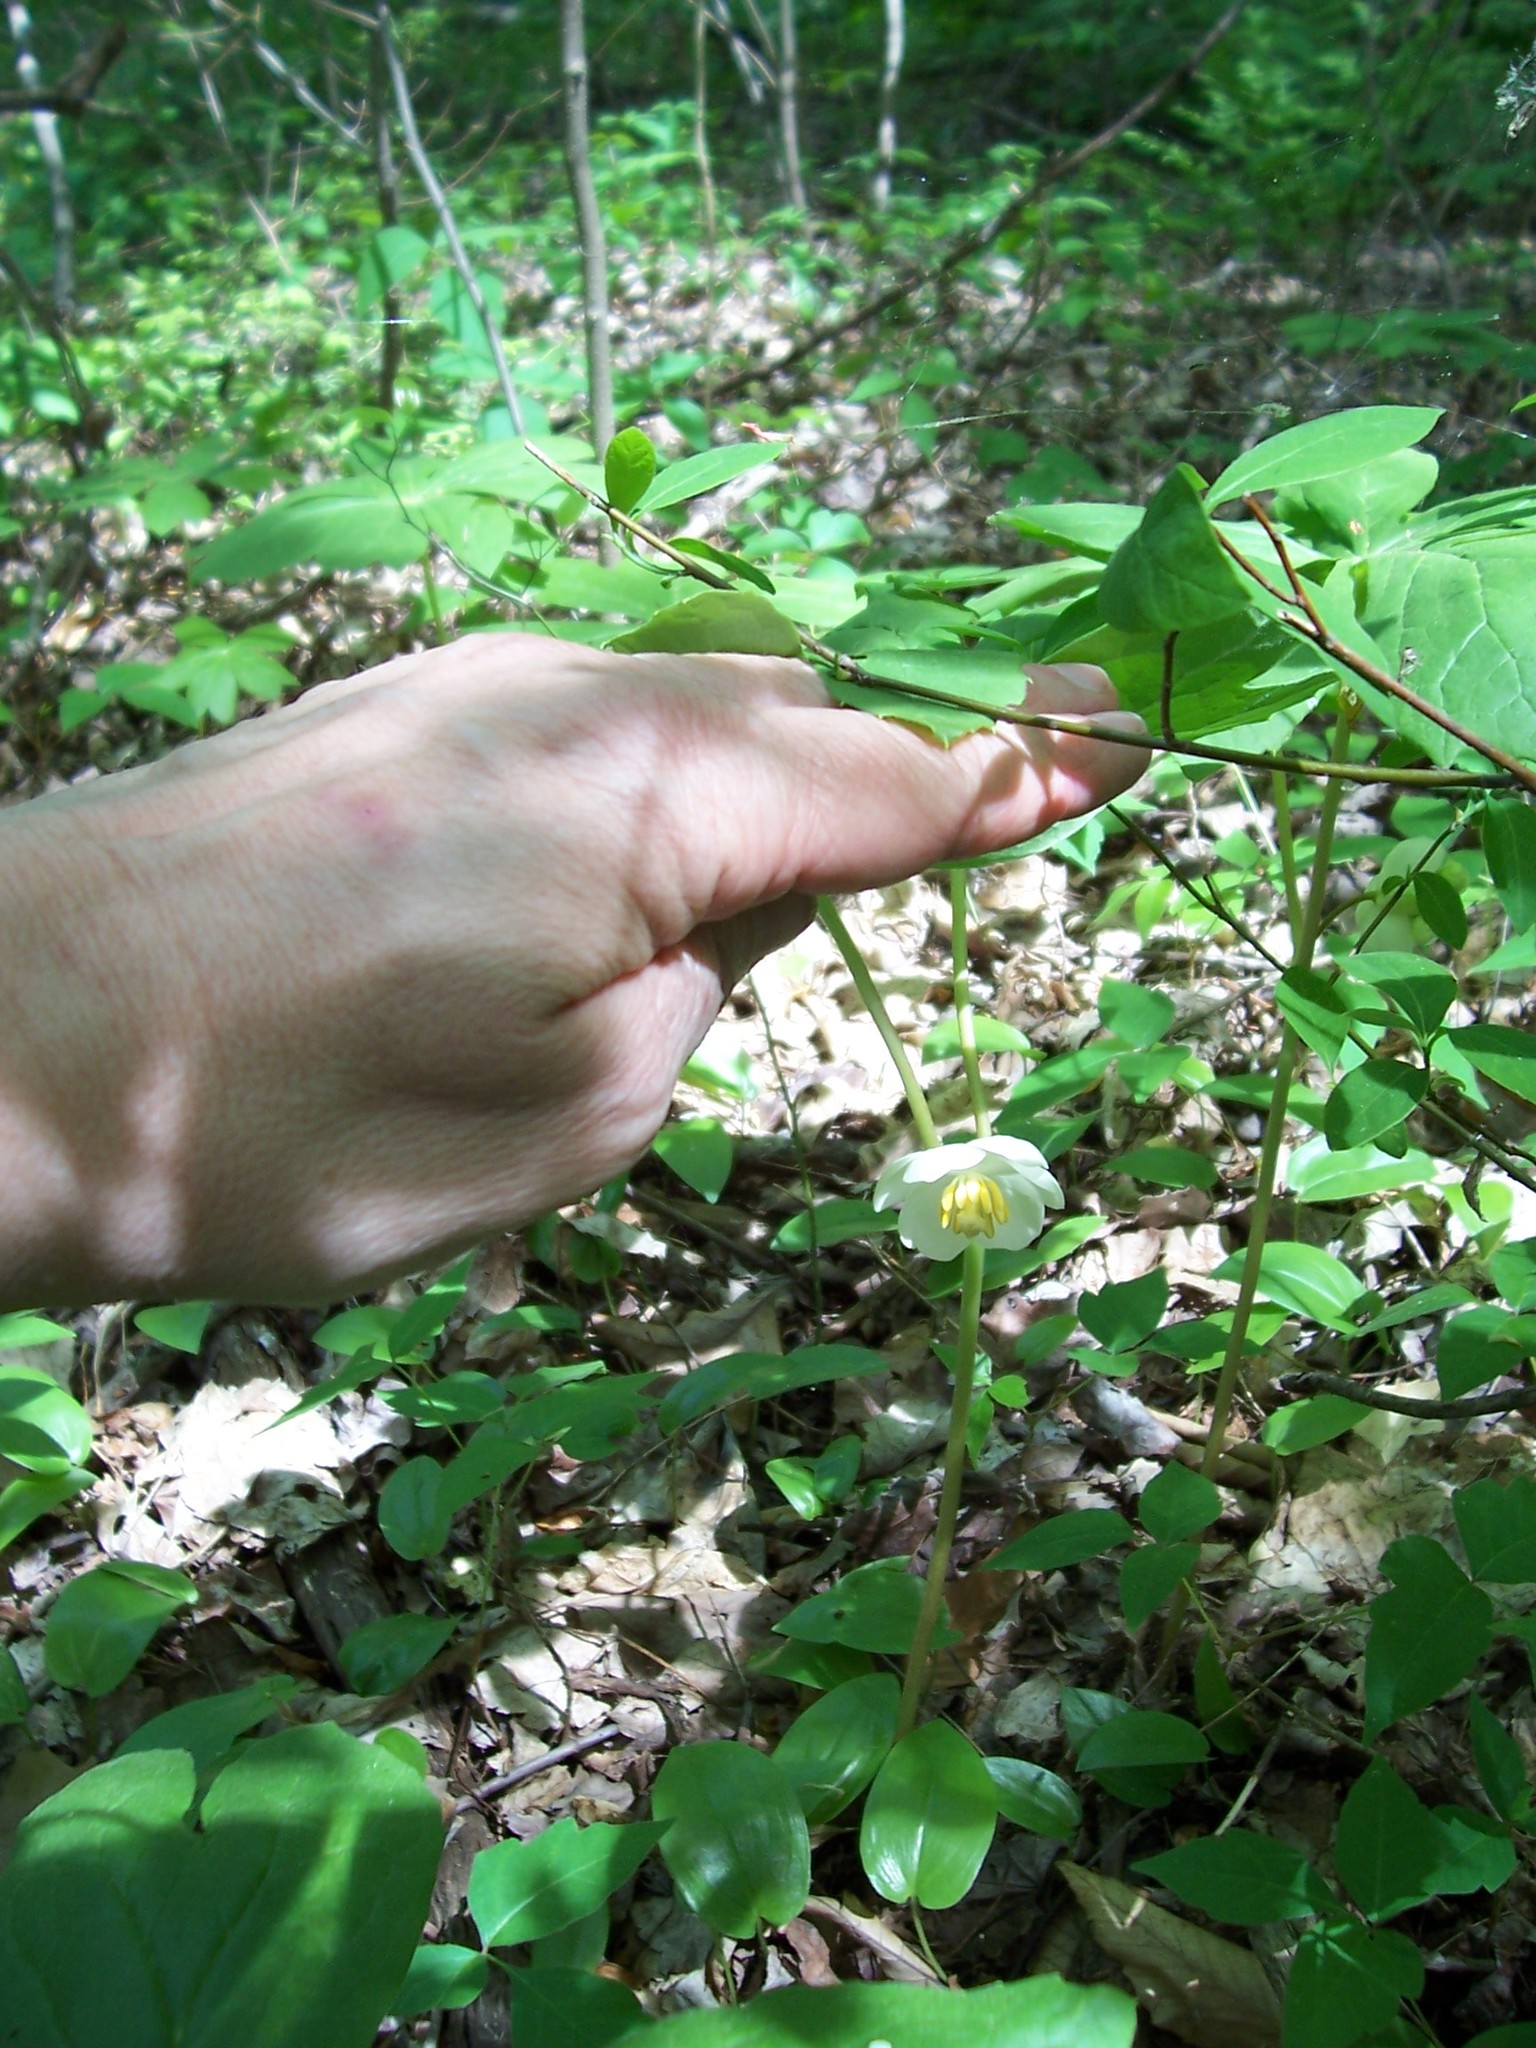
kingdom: Plantae
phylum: Tracheophyta
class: Magnoliopsida
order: Ranunculales
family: Berberidaceae
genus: Podophyllum
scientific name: Podophyllum peltatum
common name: Wild mandrake
